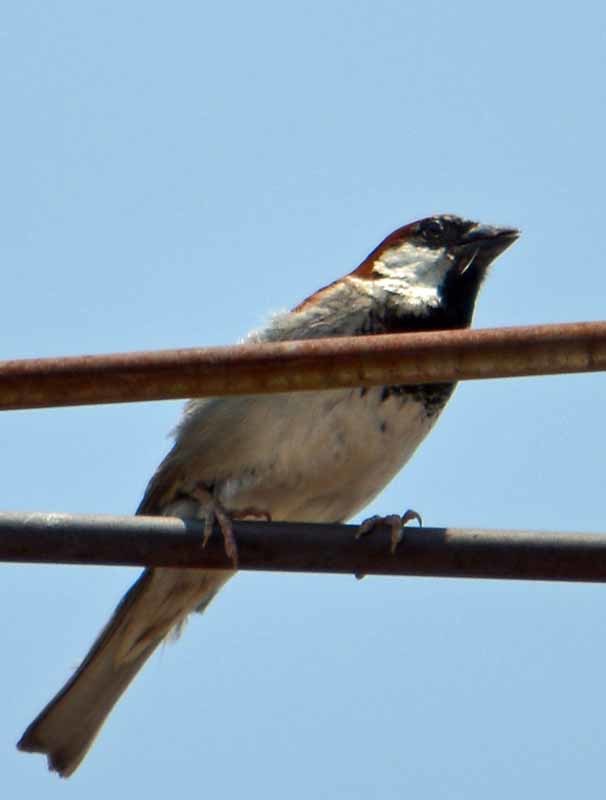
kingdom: Animalia
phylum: Chordata
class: Aves
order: Passeriformes
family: Passeridae
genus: Passer
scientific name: Passer domesticus
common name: House sparrow
